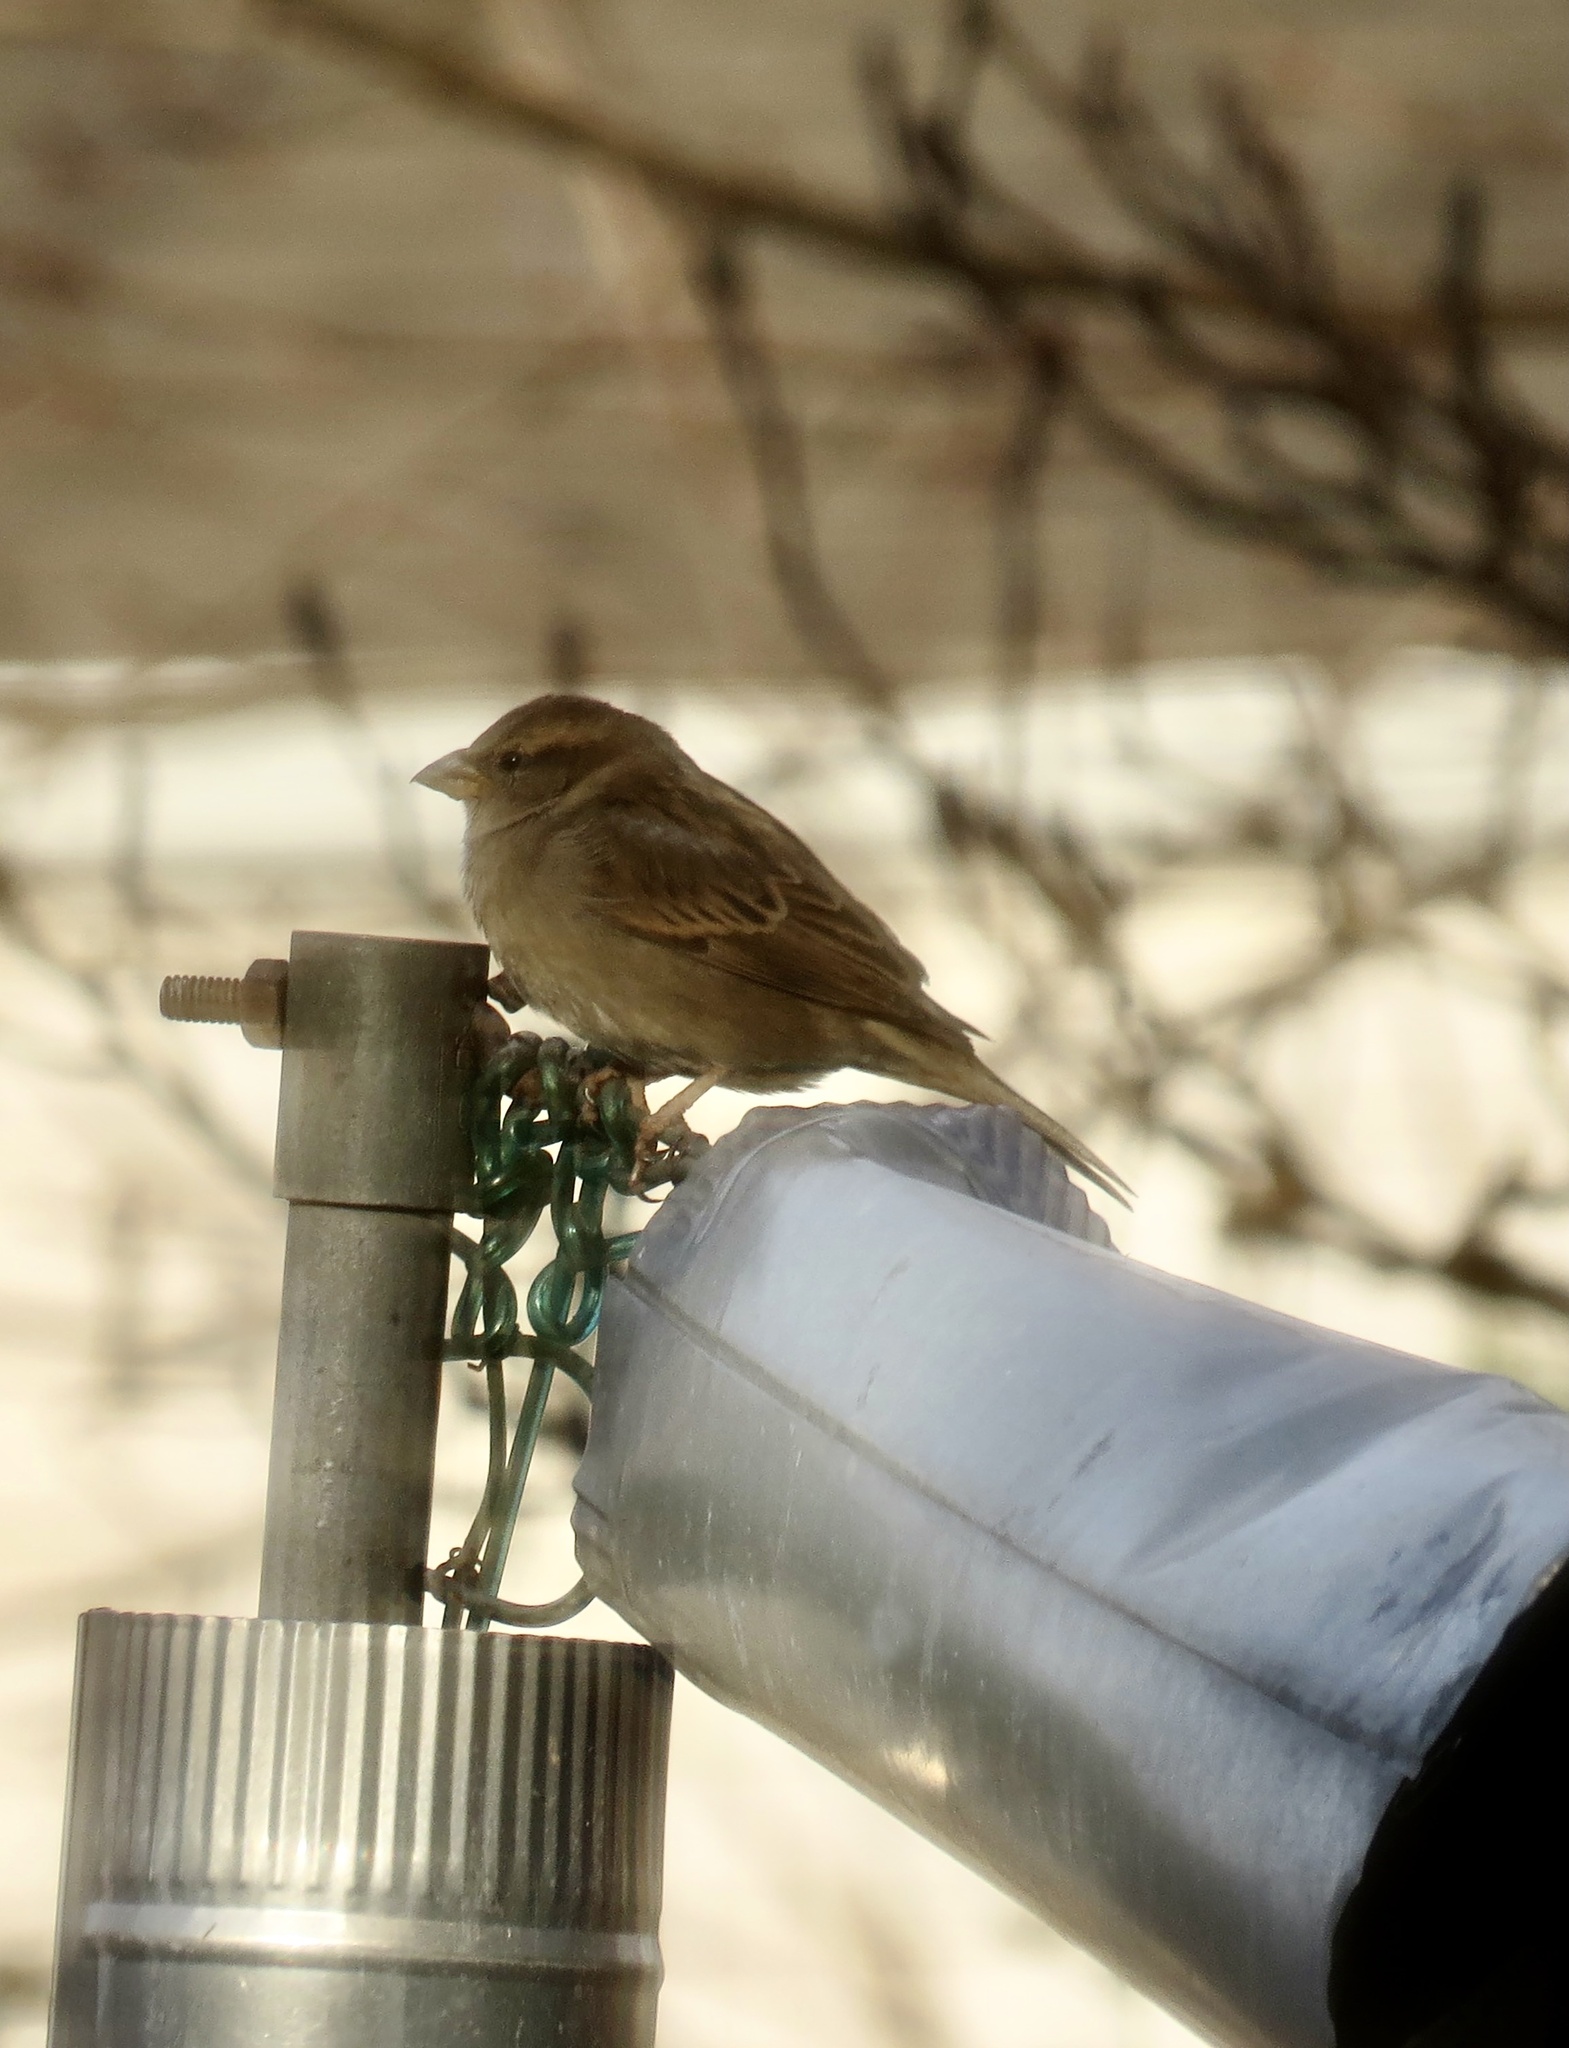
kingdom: Animalia
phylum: Chordata
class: Aves
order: Passeriformes
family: Passeridae
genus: Passer
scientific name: Passer domesticus
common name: House sparrow
